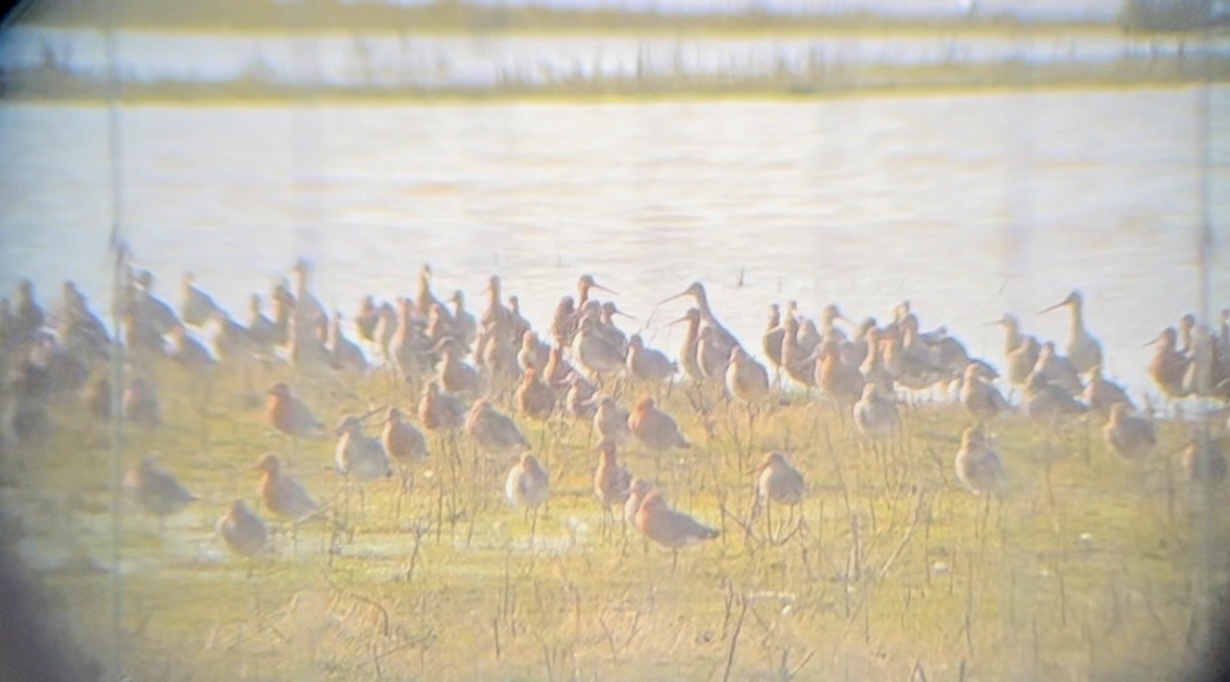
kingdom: Animalia
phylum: Chordata
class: Aves
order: Charadriiformes
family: Scolopacidae
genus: Limosa
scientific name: Limosa limosa
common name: Black-tailed godwit
